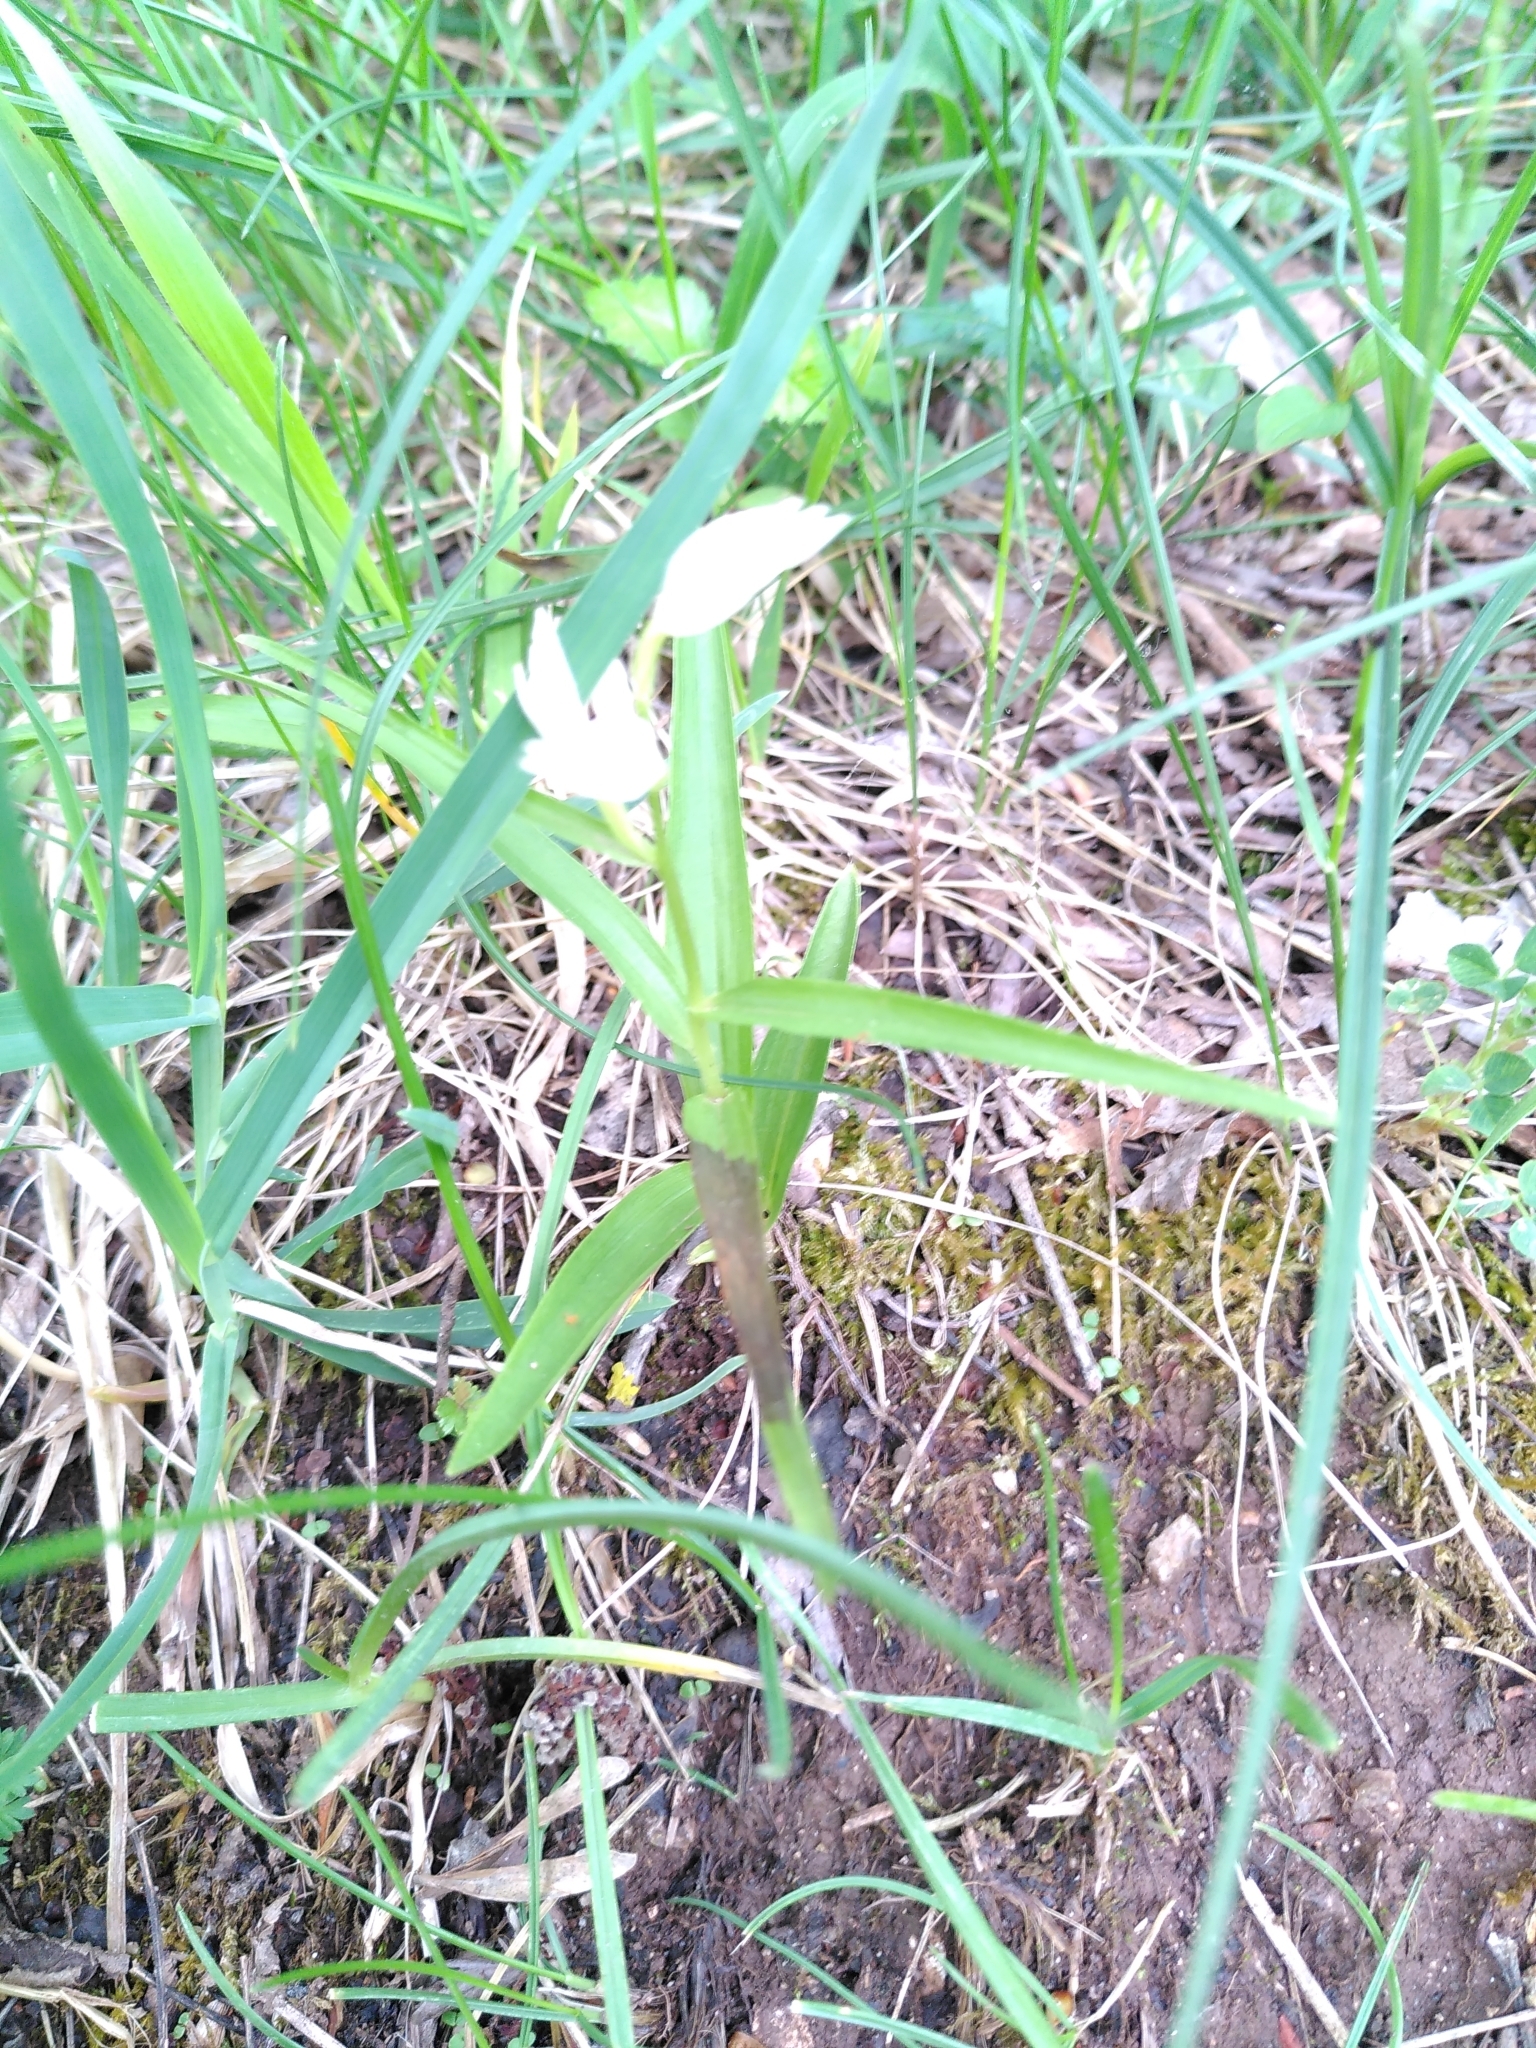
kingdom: Plantae
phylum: Tracheophyta
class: Liliopsida
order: Asparagales
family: Orchidaceae
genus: Cephalanthera
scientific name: Cephalanthera longifolia
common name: Narrow-leaved helleborine
